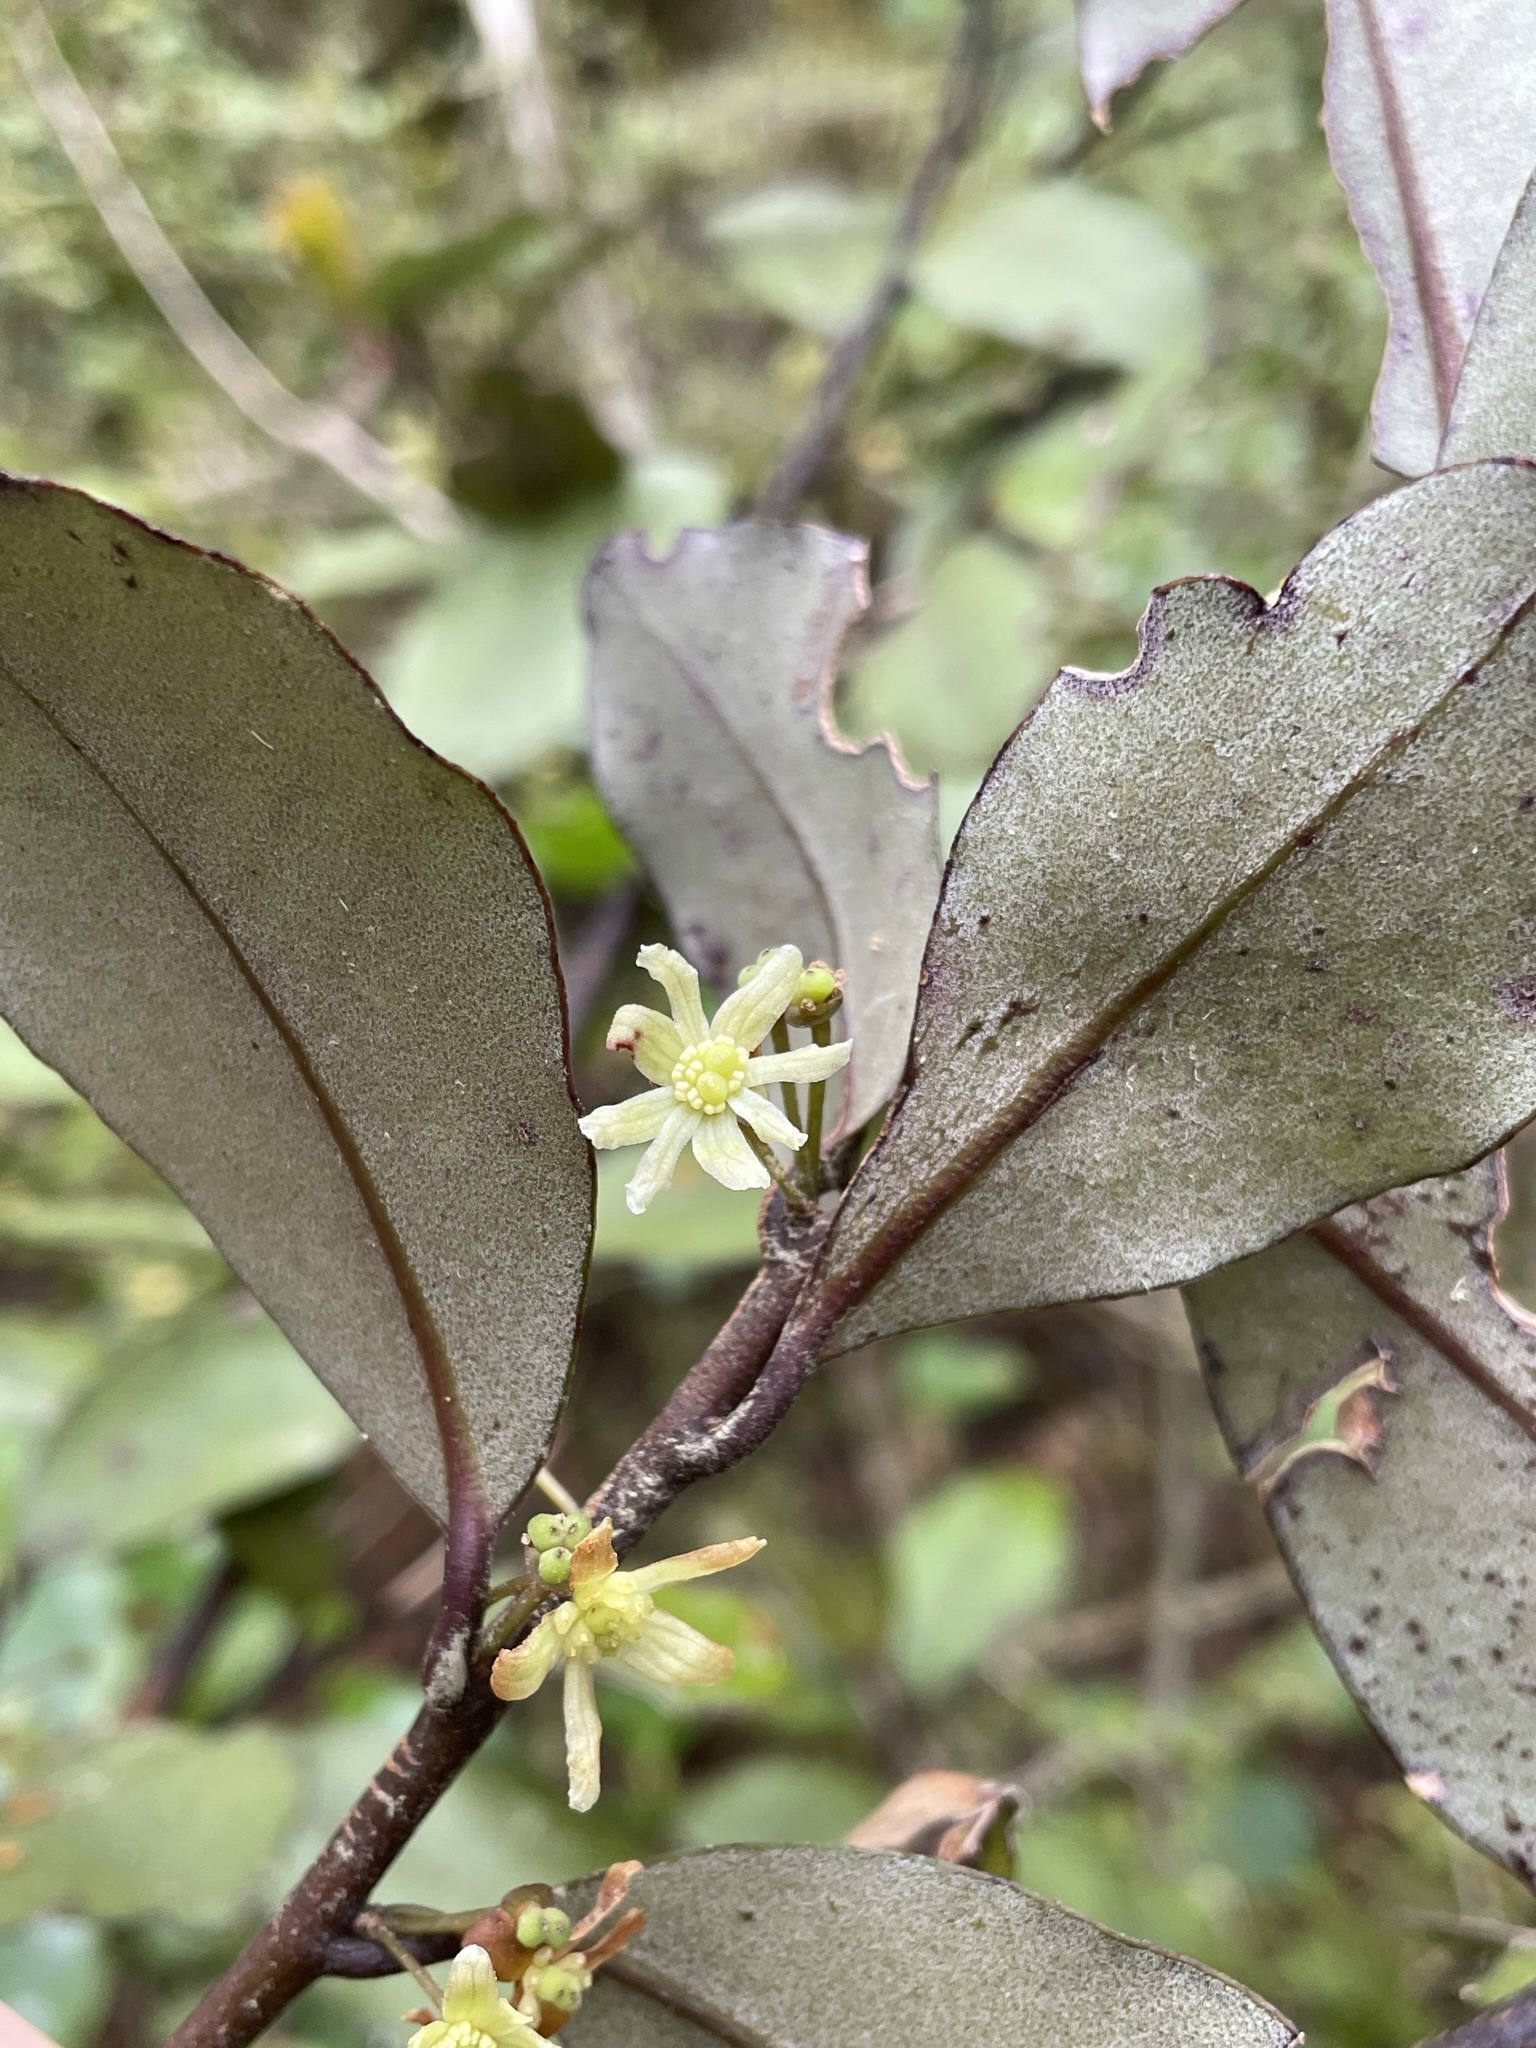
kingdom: Plantae
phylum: Tracheophyta
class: Magnoliopsida
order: Canellales
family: Winteraceae
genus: Pseudowintera
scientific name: Pseudowintera colorata
